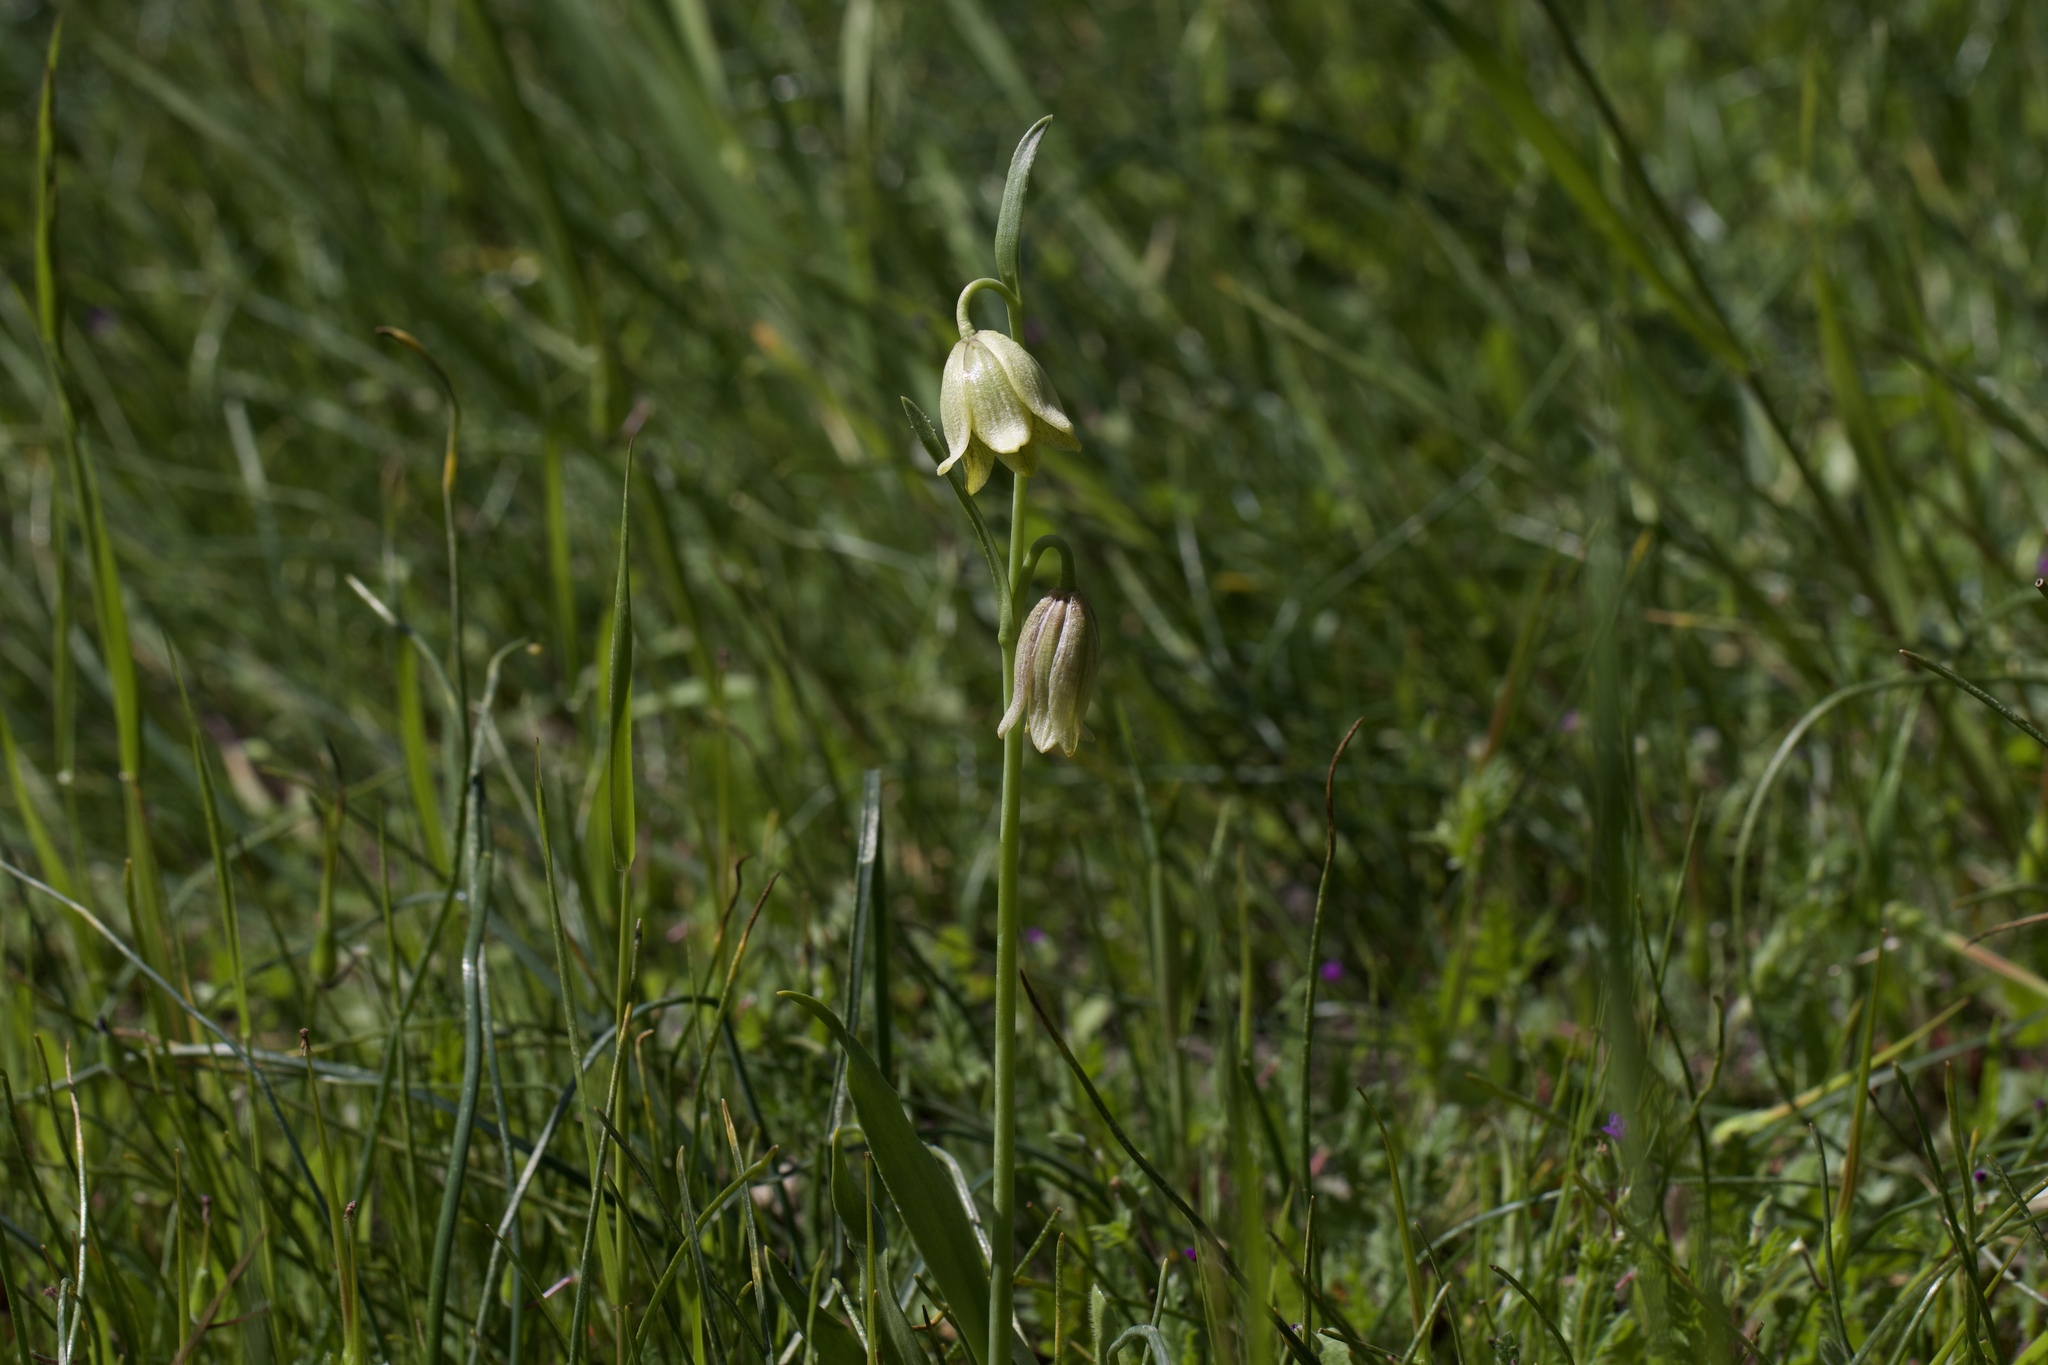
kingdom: Plantae
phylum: Tracheophyta
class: Liliopsida
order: Liliales
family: Liliaceae
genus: Fritillaria
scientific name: Fritillaria agrestis
